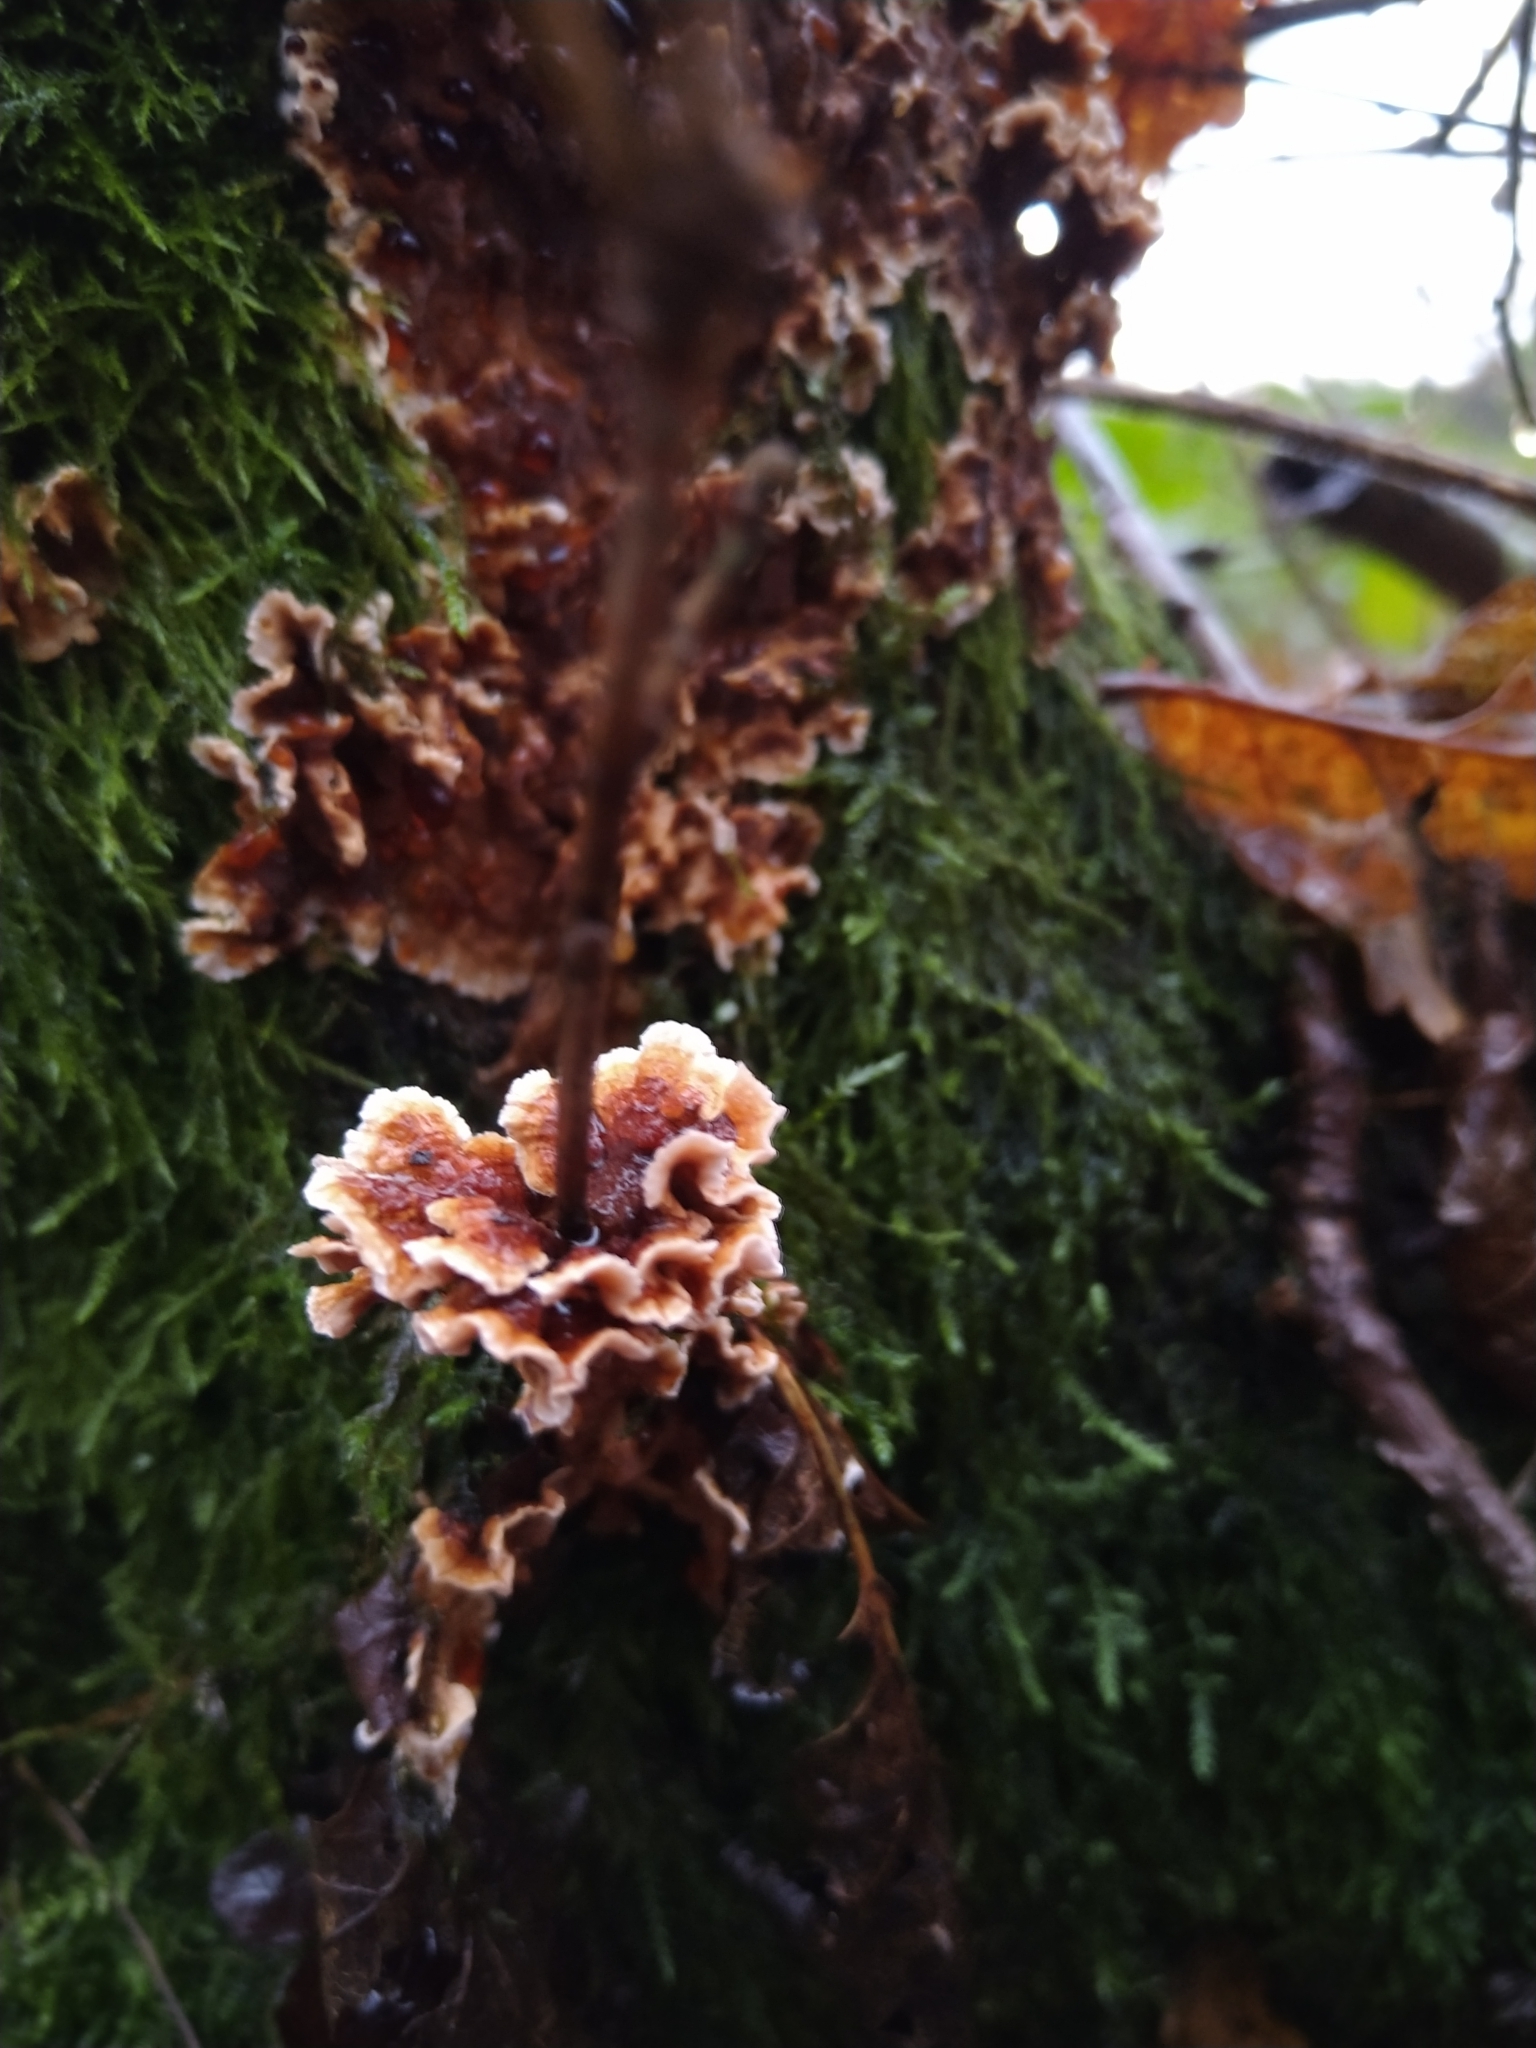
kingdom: Fungi
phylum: Basidiomycota
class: Agaricomycetes
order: Russulales
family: Stereaceae
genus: Stereum
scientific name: Stereum gausapatum
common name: Bleeding oak crust
